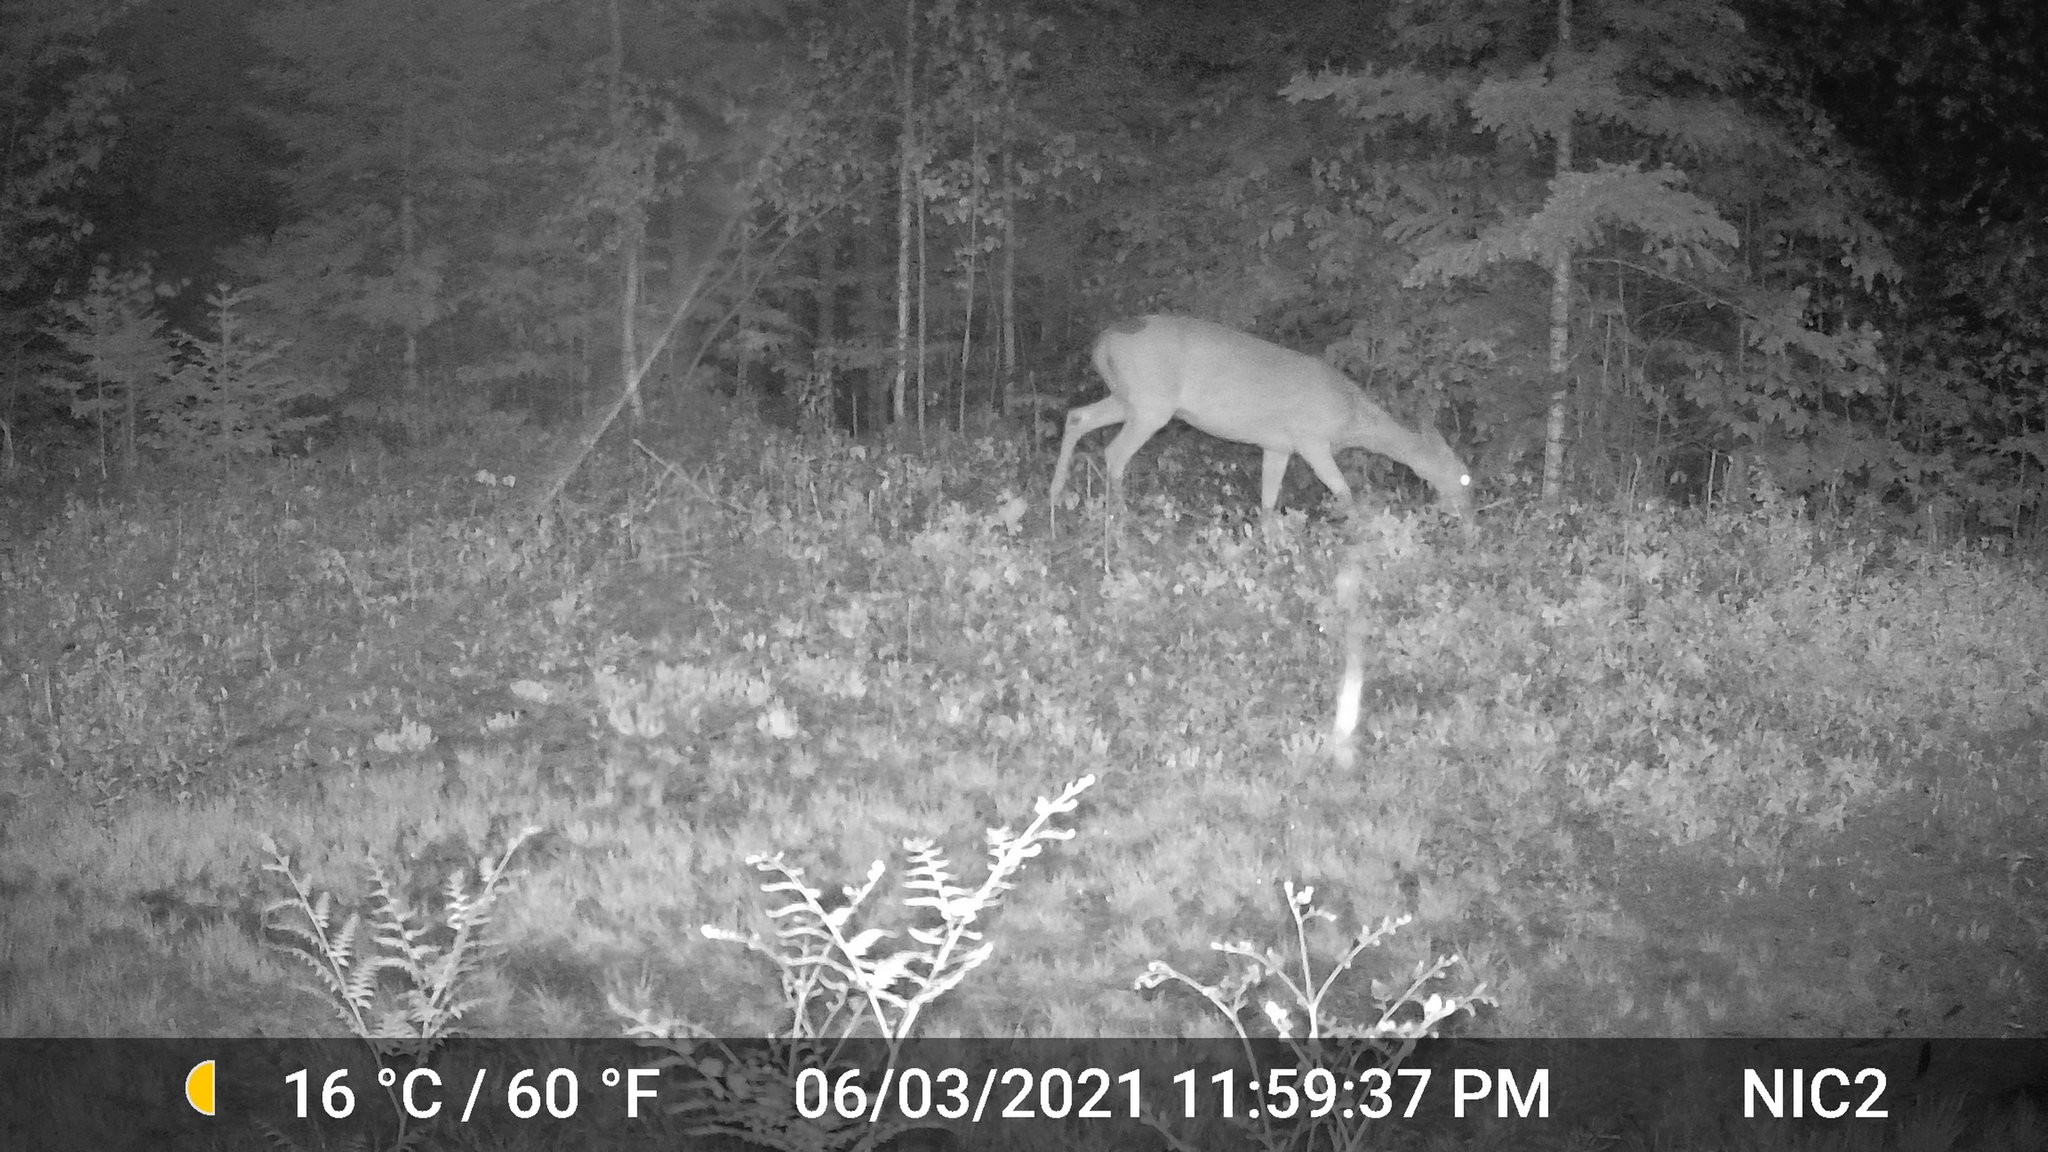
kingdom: Animalia
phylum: Chordata
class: Mammalia
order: Artiodactyla
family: Cervidae
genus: Odocoileus
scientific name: Odocoileus virginianus
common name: White-tailed deer
